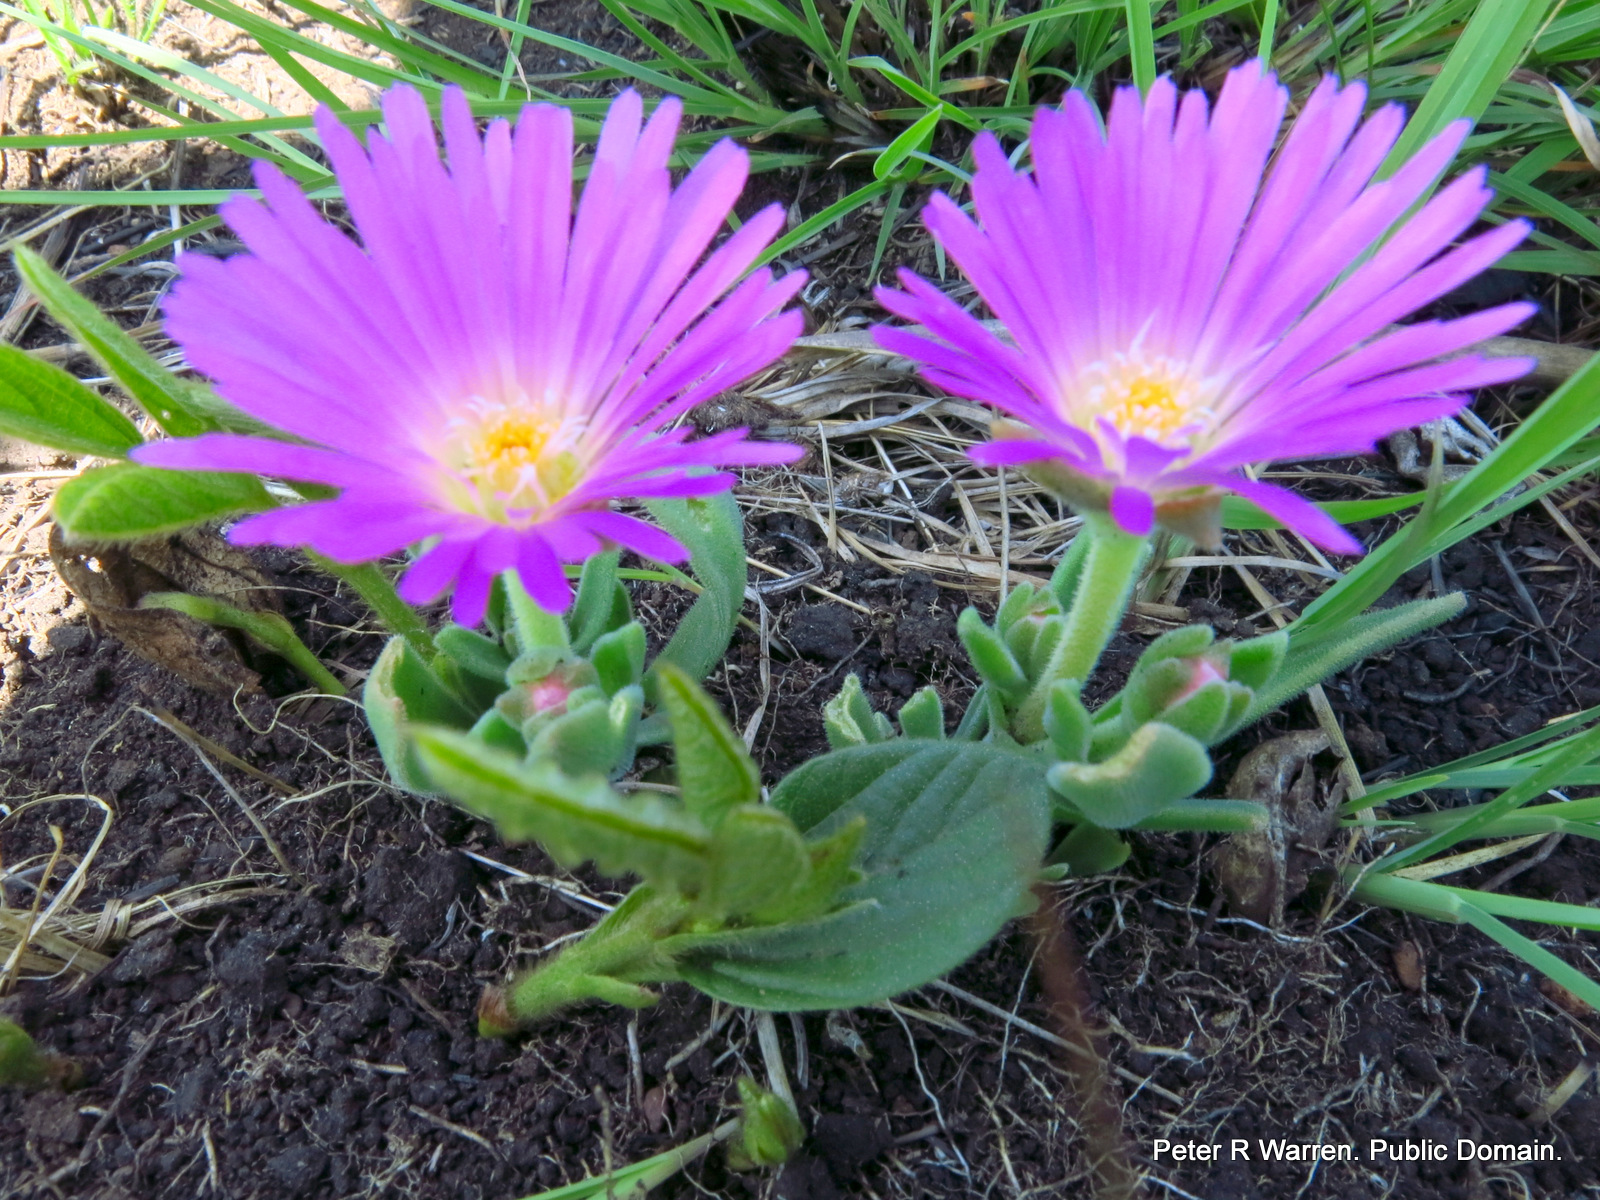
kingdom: Plantae
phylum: Tracheophyta
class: Magnoliopsida
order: Caryophyllales
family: Aizoaceae
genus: Delosperma
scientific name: Delosperma sutherlandii
